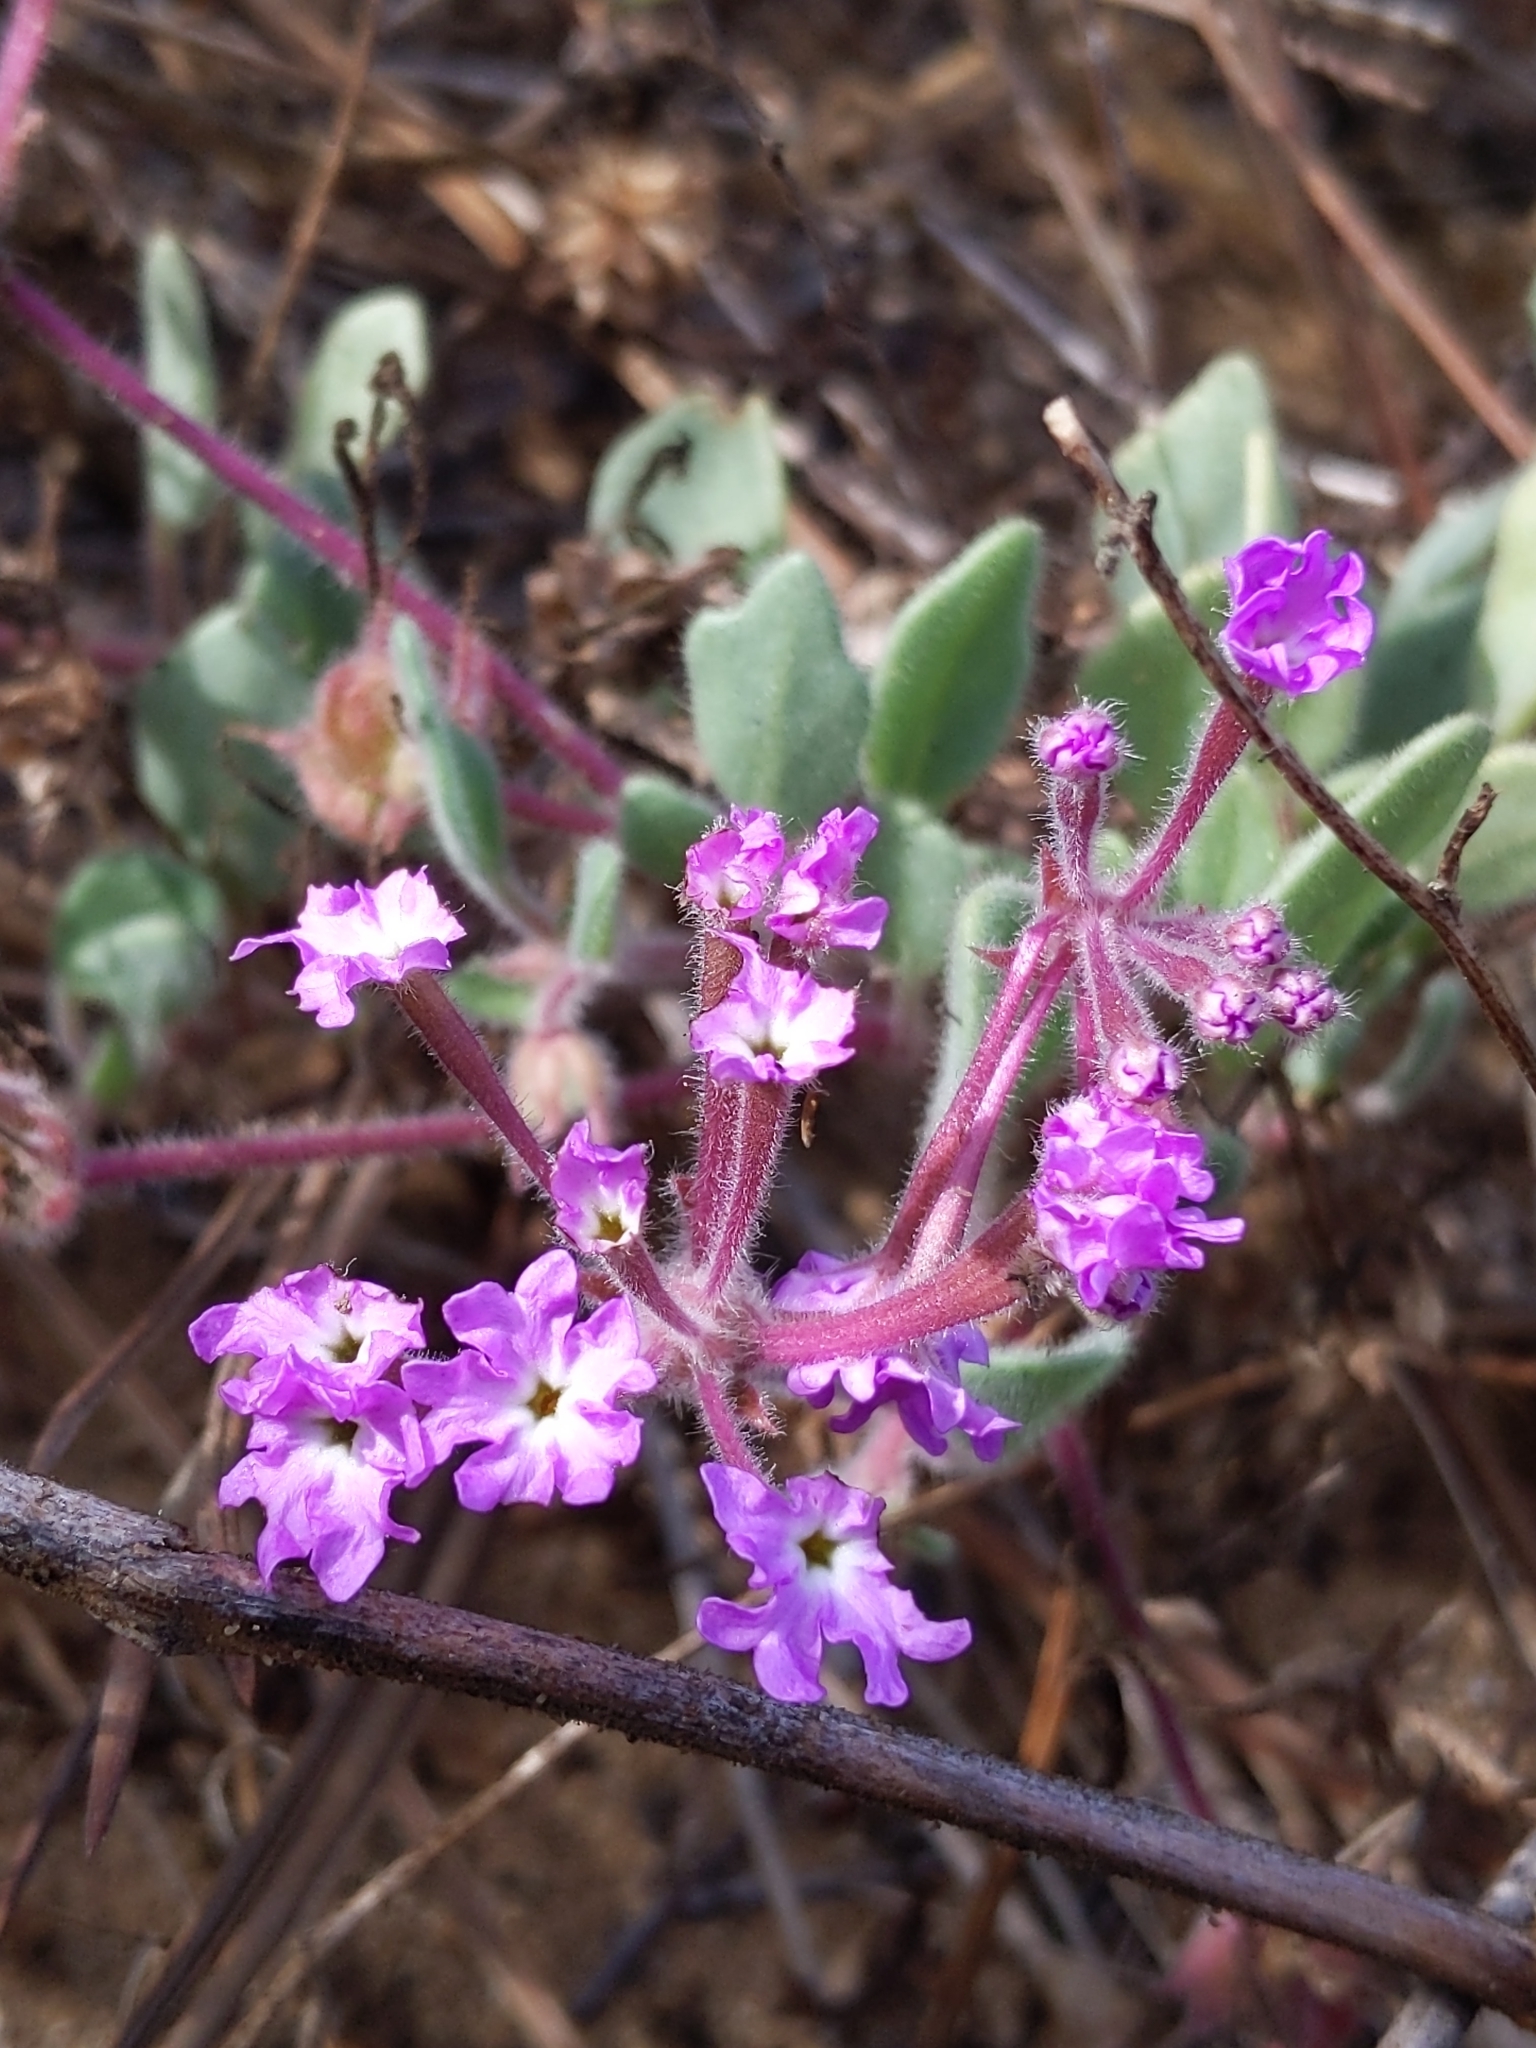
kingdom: Plantae
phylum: Tracheophyta
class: Magnoliopsida
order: Caryophyllales
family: Nyctaginaceae
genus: Abronia
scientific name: Abronia umbellata
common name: Sand-verbena
